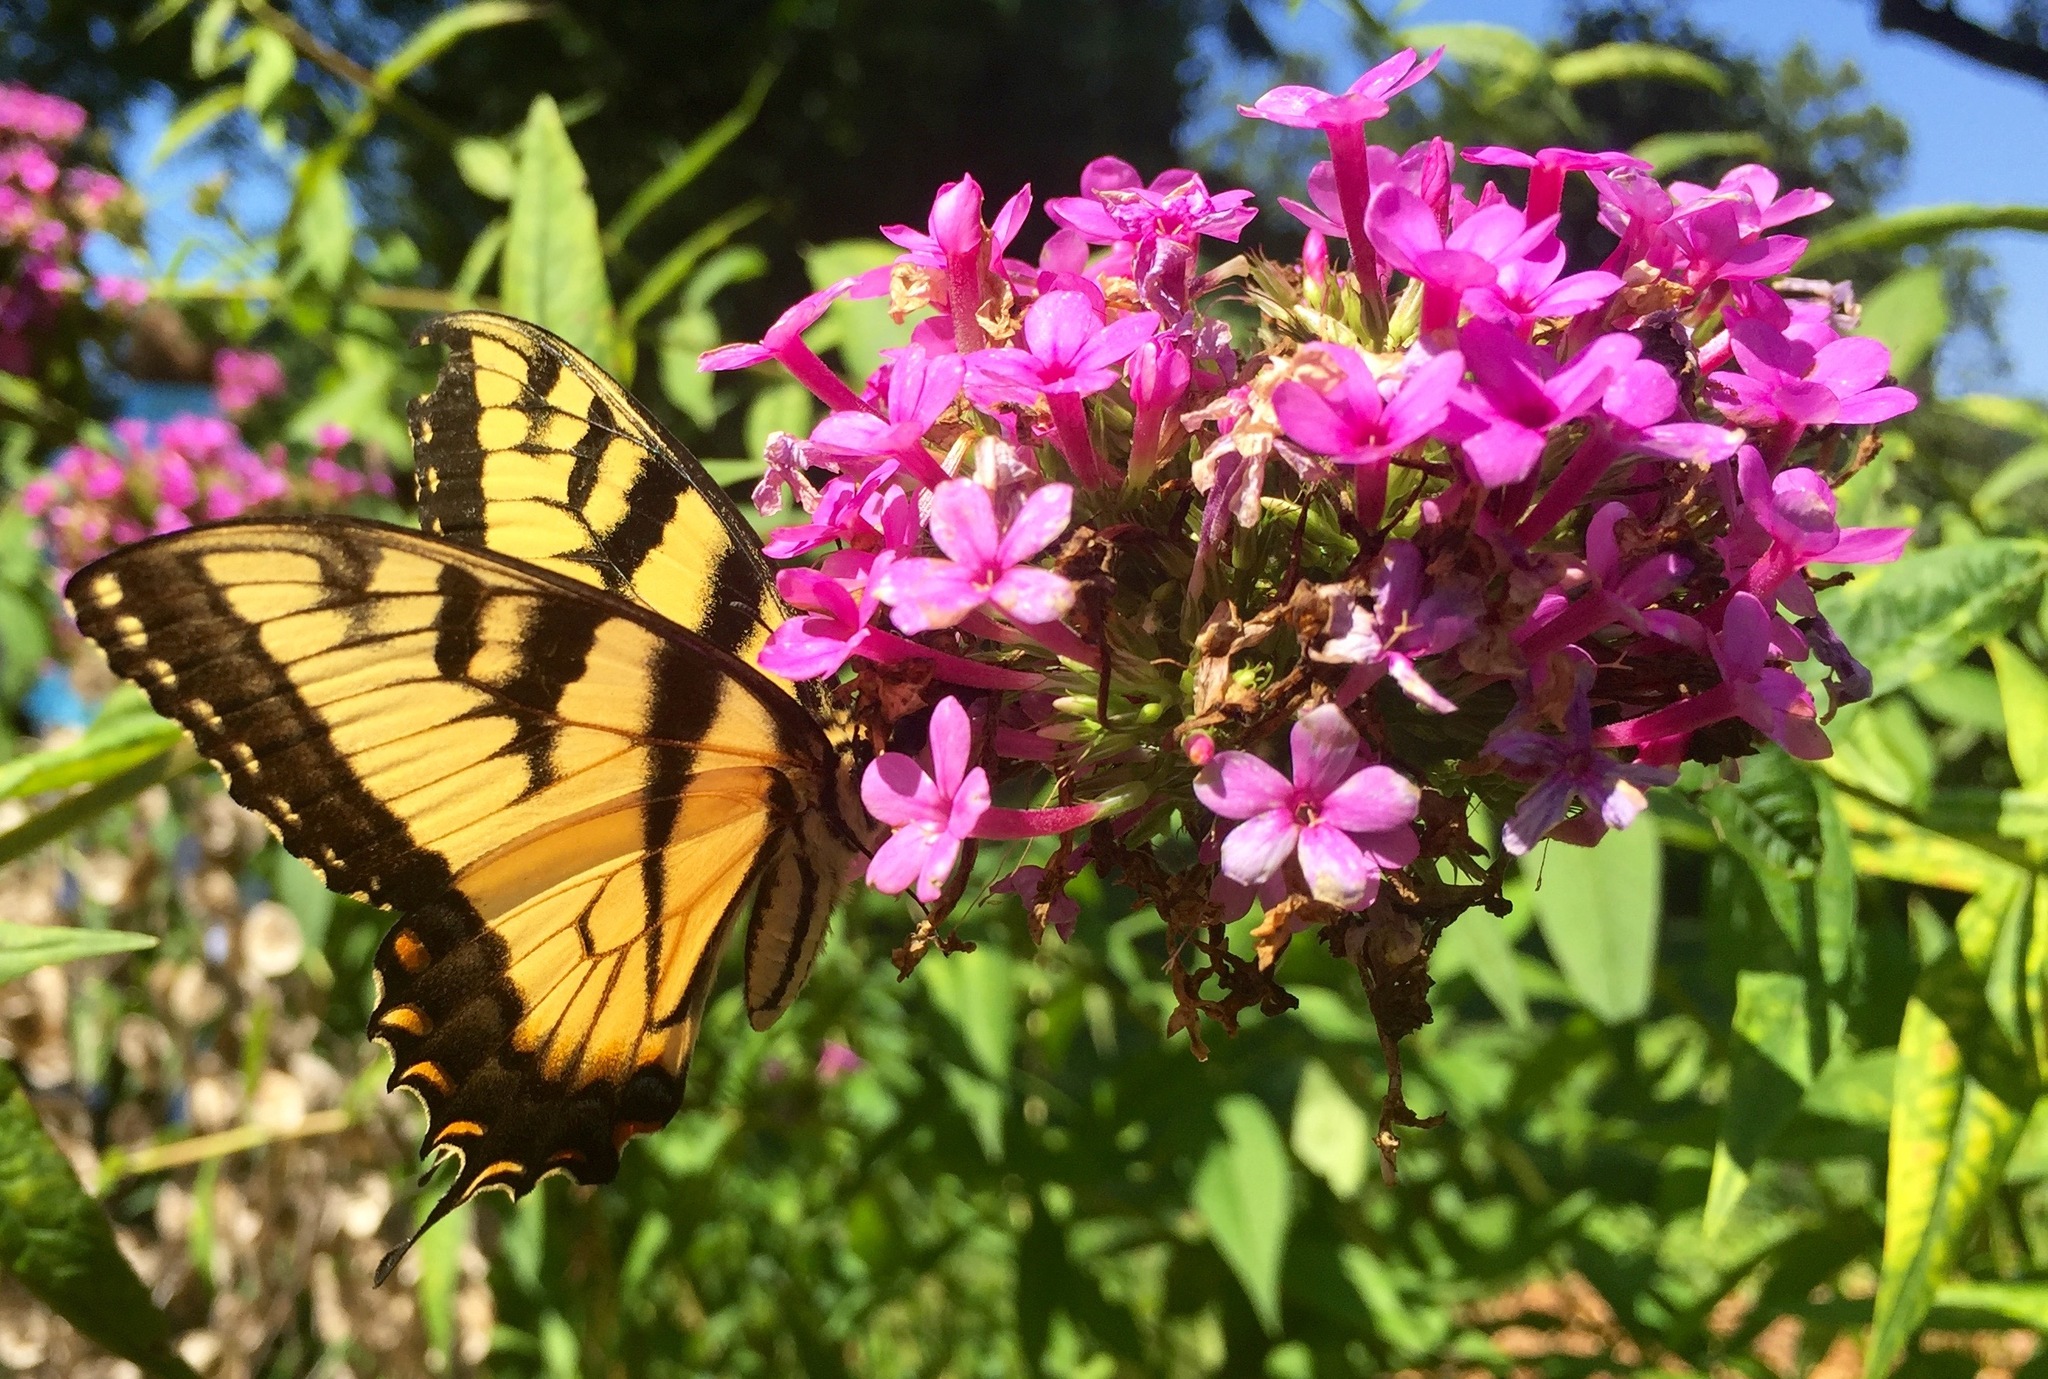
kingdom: Animalia
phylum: Arthropoda
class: Insecta
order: Lepidoptera
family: Papilionidae
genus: Papilio
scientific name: Papilio glaucus
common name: Tiger swallowtail
